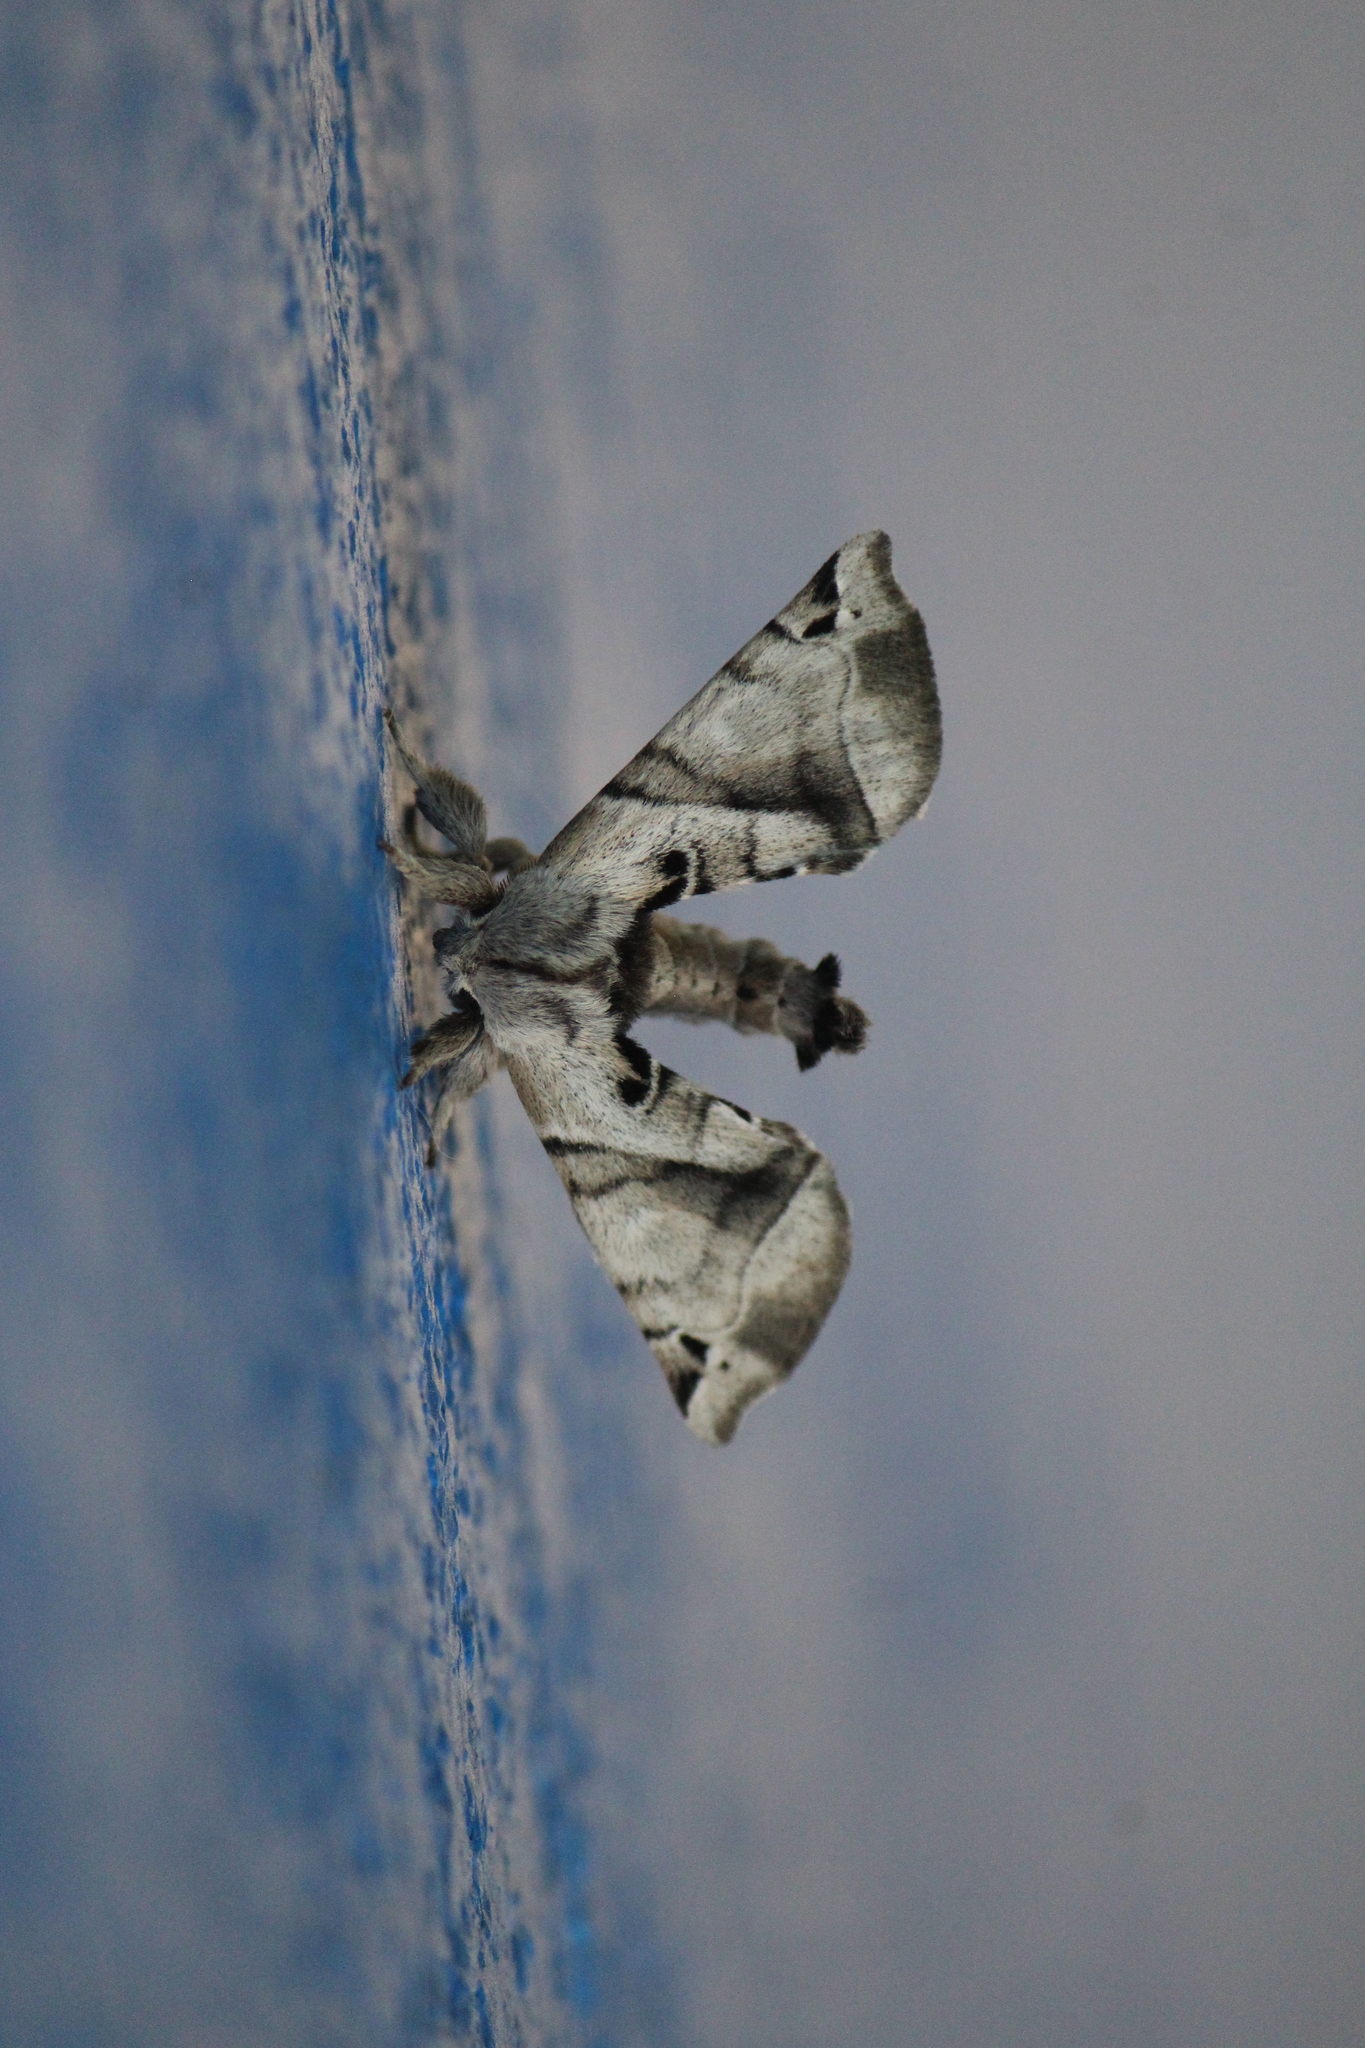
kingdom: Animalia
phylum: Arthropoda
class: Insecta
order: Lepidoptera
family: Apatelodidae
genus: Hygrochroa
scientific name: Hygrochroa Apatelodes pudefacta
